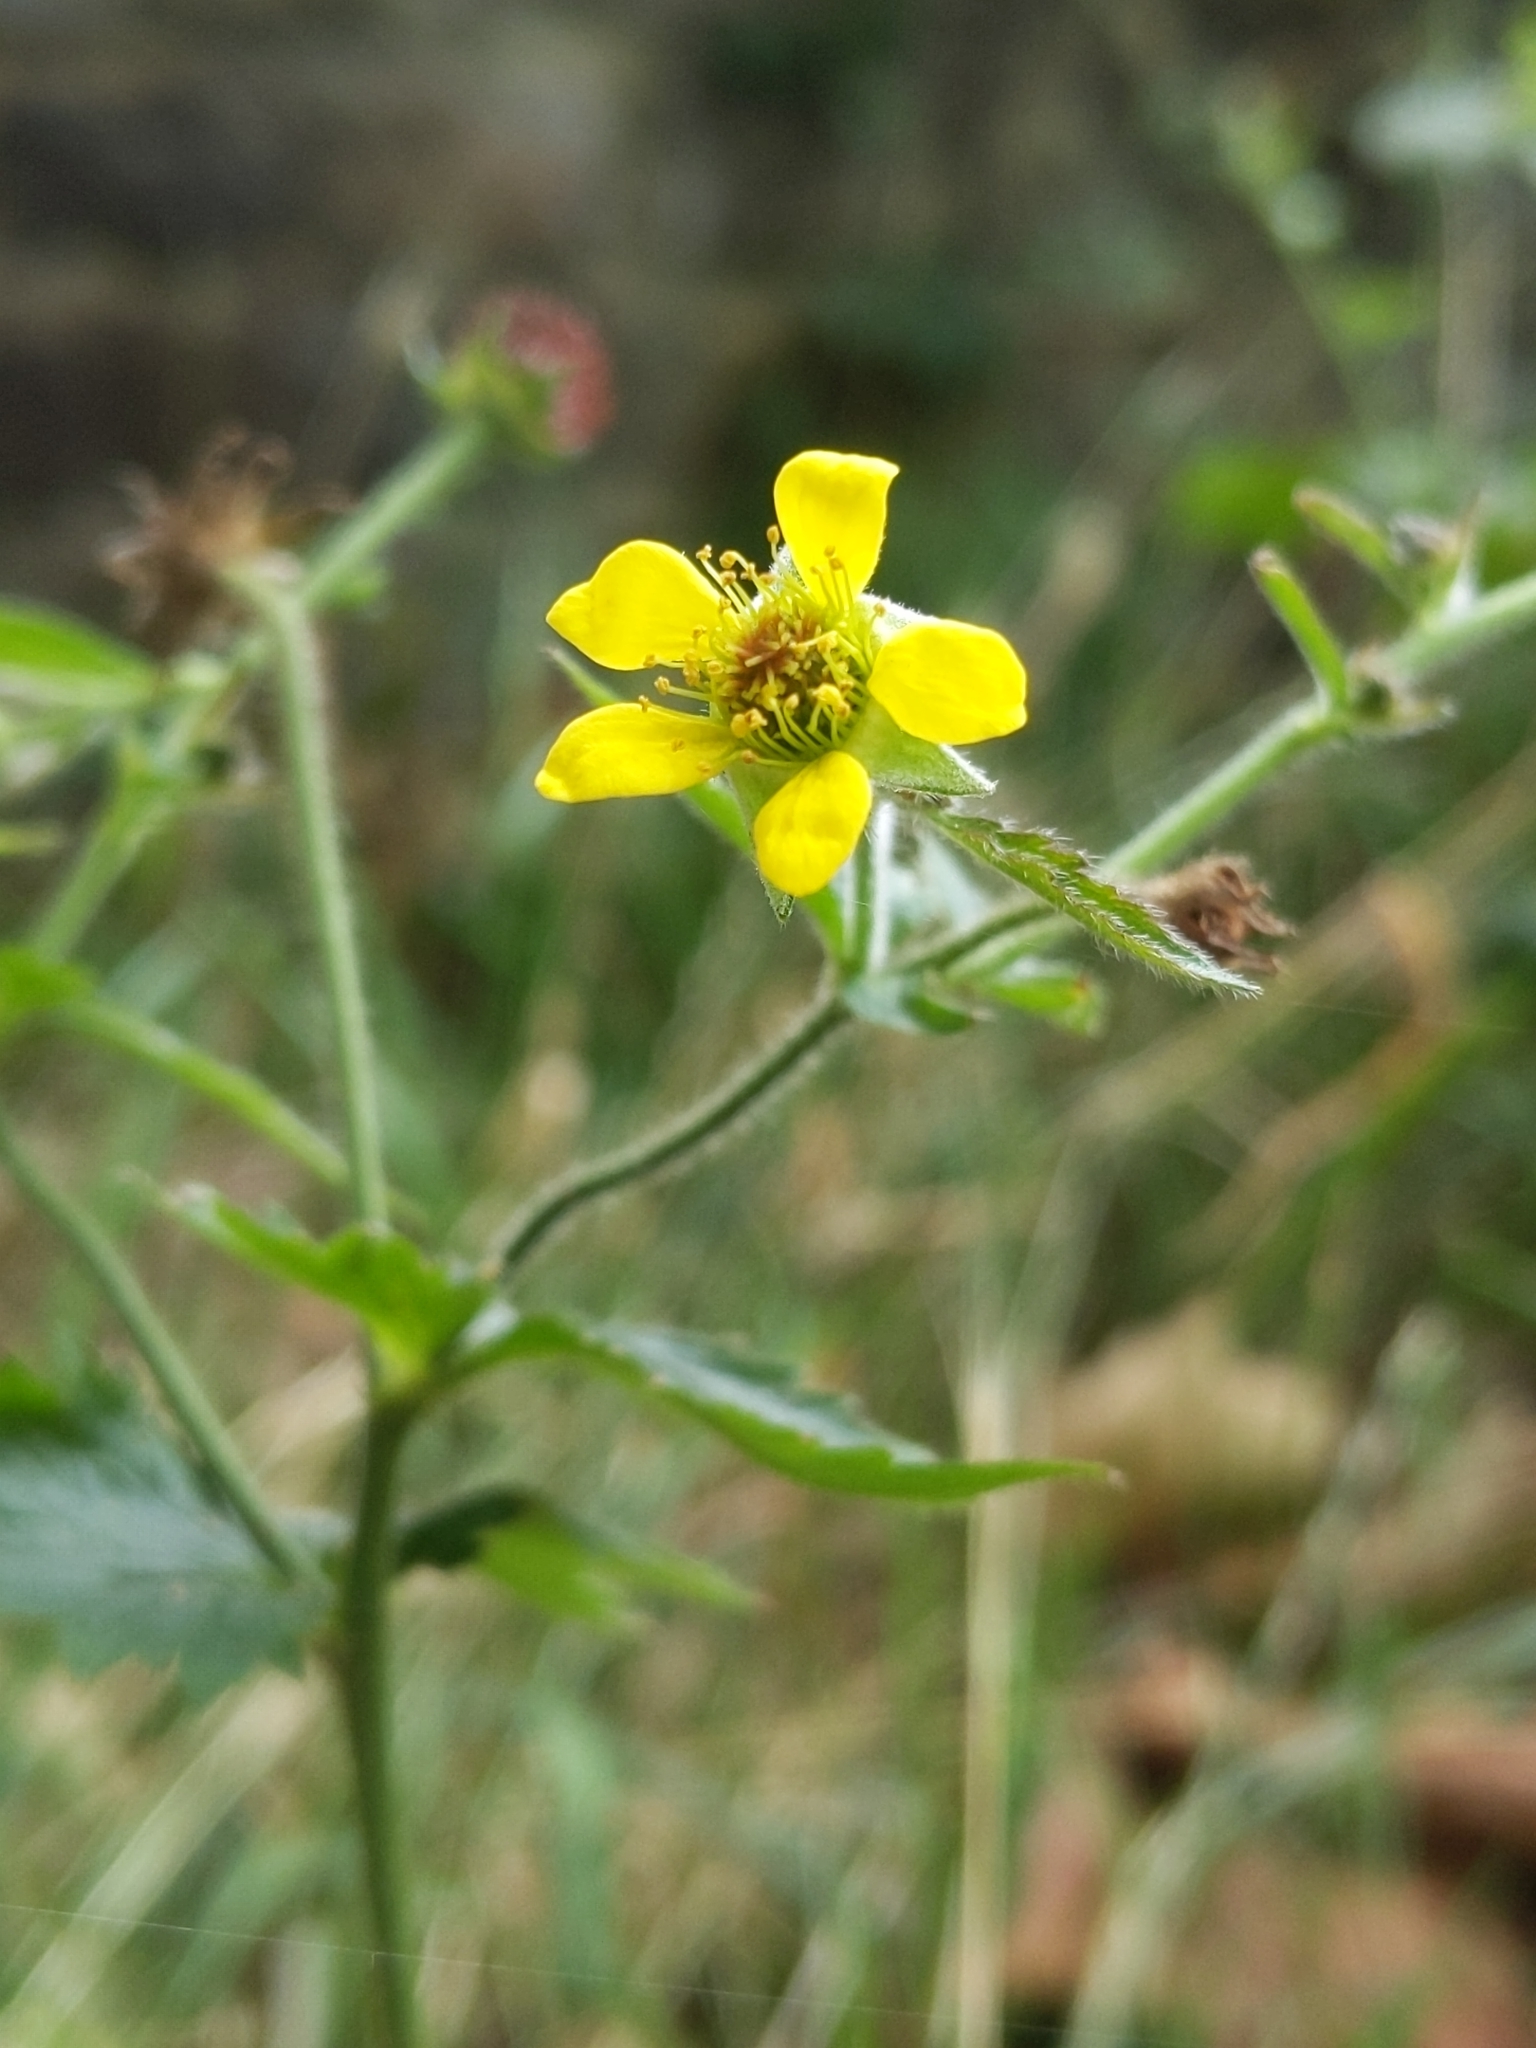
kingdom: Plantae
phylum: Tracheophyta
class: Magnoliopsida
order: Rosales
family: Rosaceae
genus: Geum
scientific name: Geum urbanum
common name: Wood avens
